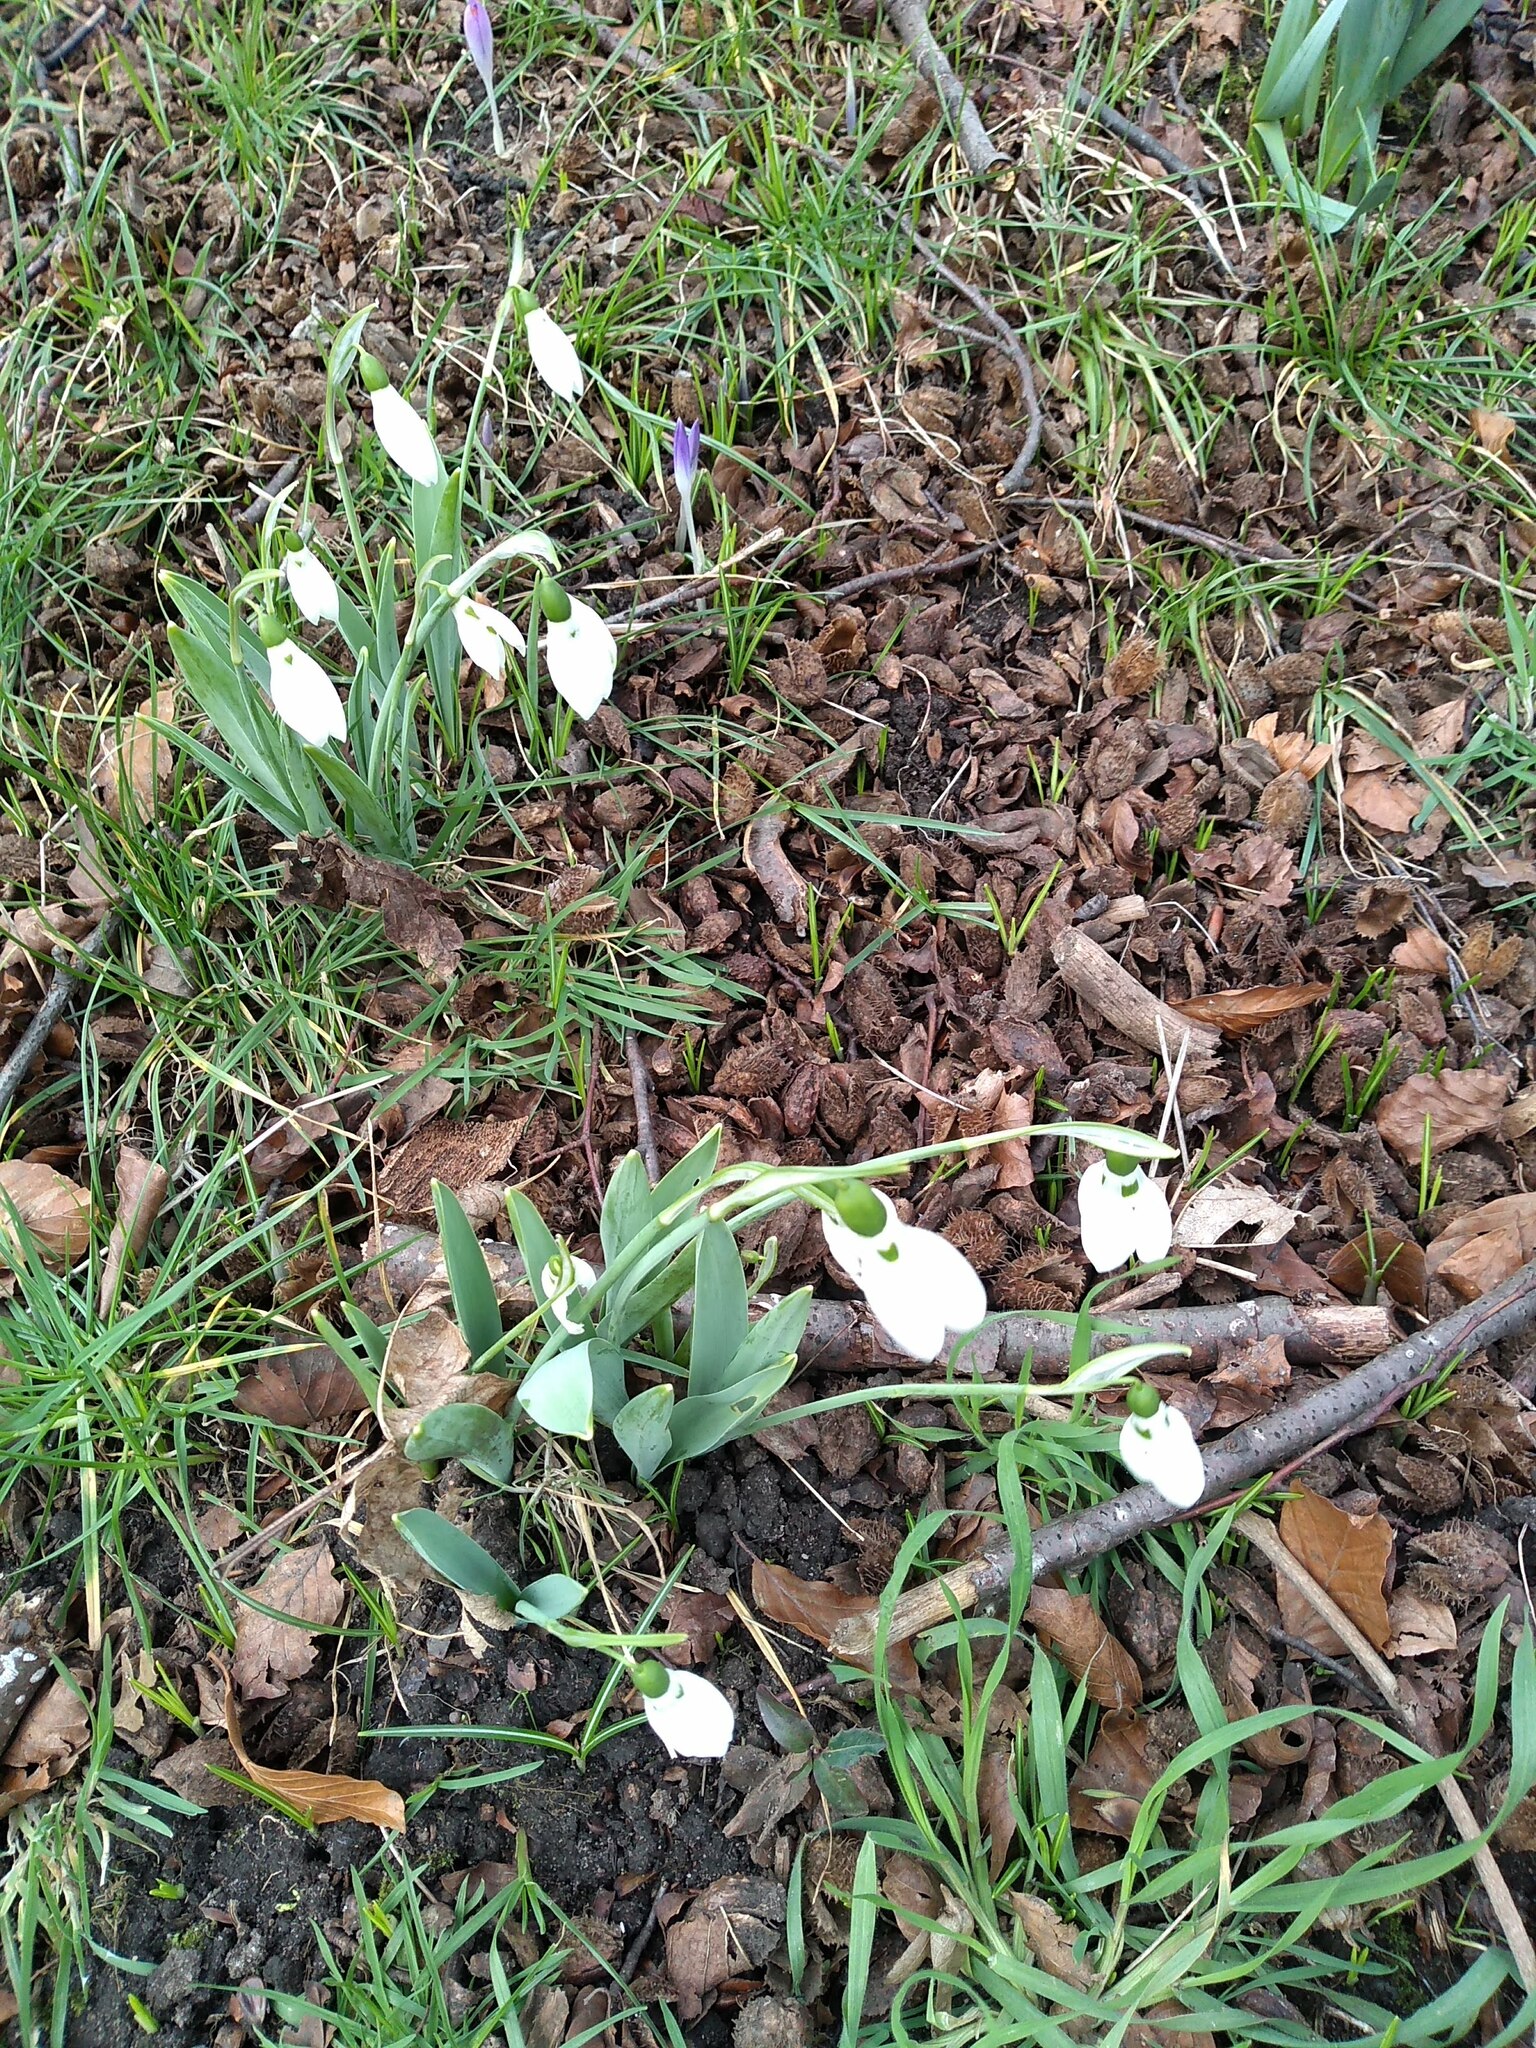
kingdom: Plantae
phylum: Tracheophyta
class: Liliopsida
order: Asparagales
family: Amaryllidaceae
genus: Galanthus
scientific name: Galanthus elwesii
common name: Greater snowdrop
